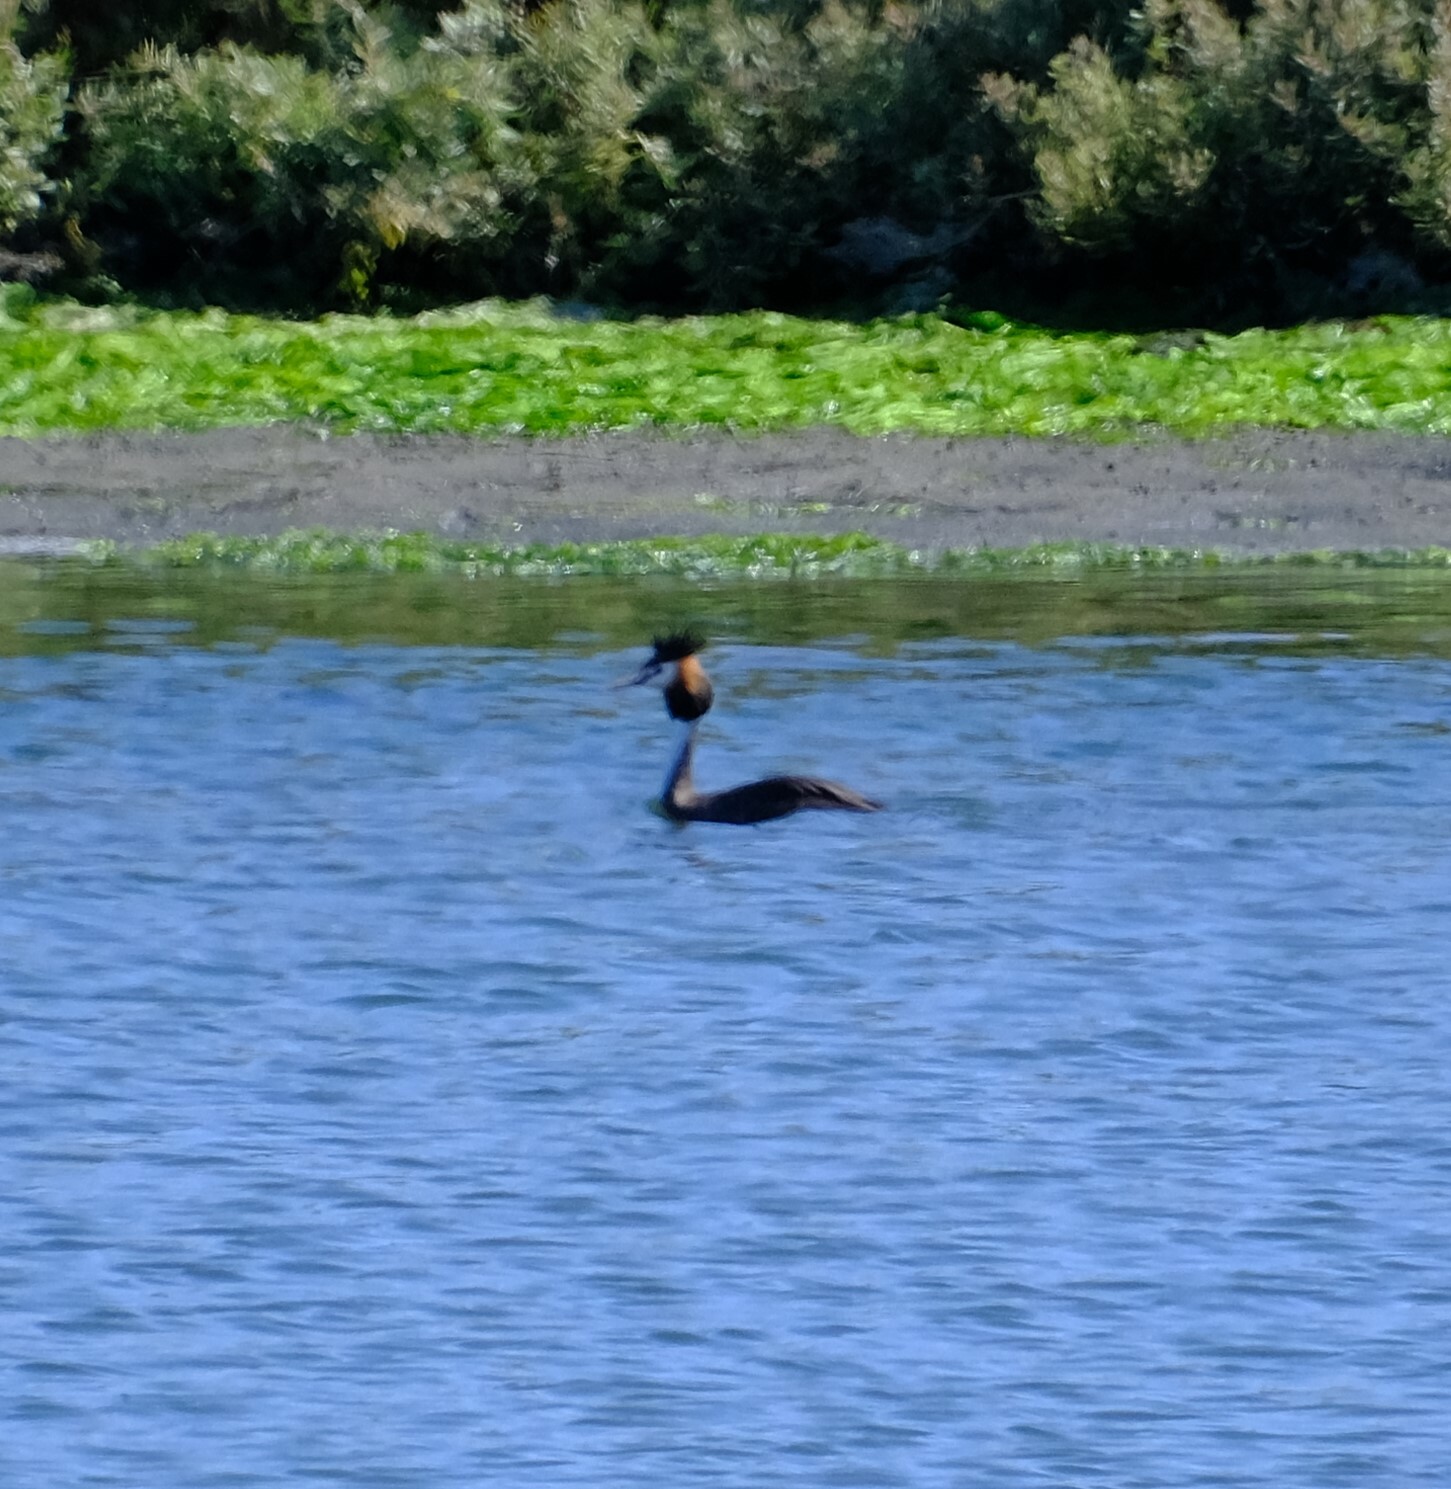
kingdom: Animalia
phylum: Chordata
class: Aves
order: Podicipediformes
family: Podicipedidae
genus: Podiceps
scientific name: Podiceps cristatus
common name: Great crested grebe
